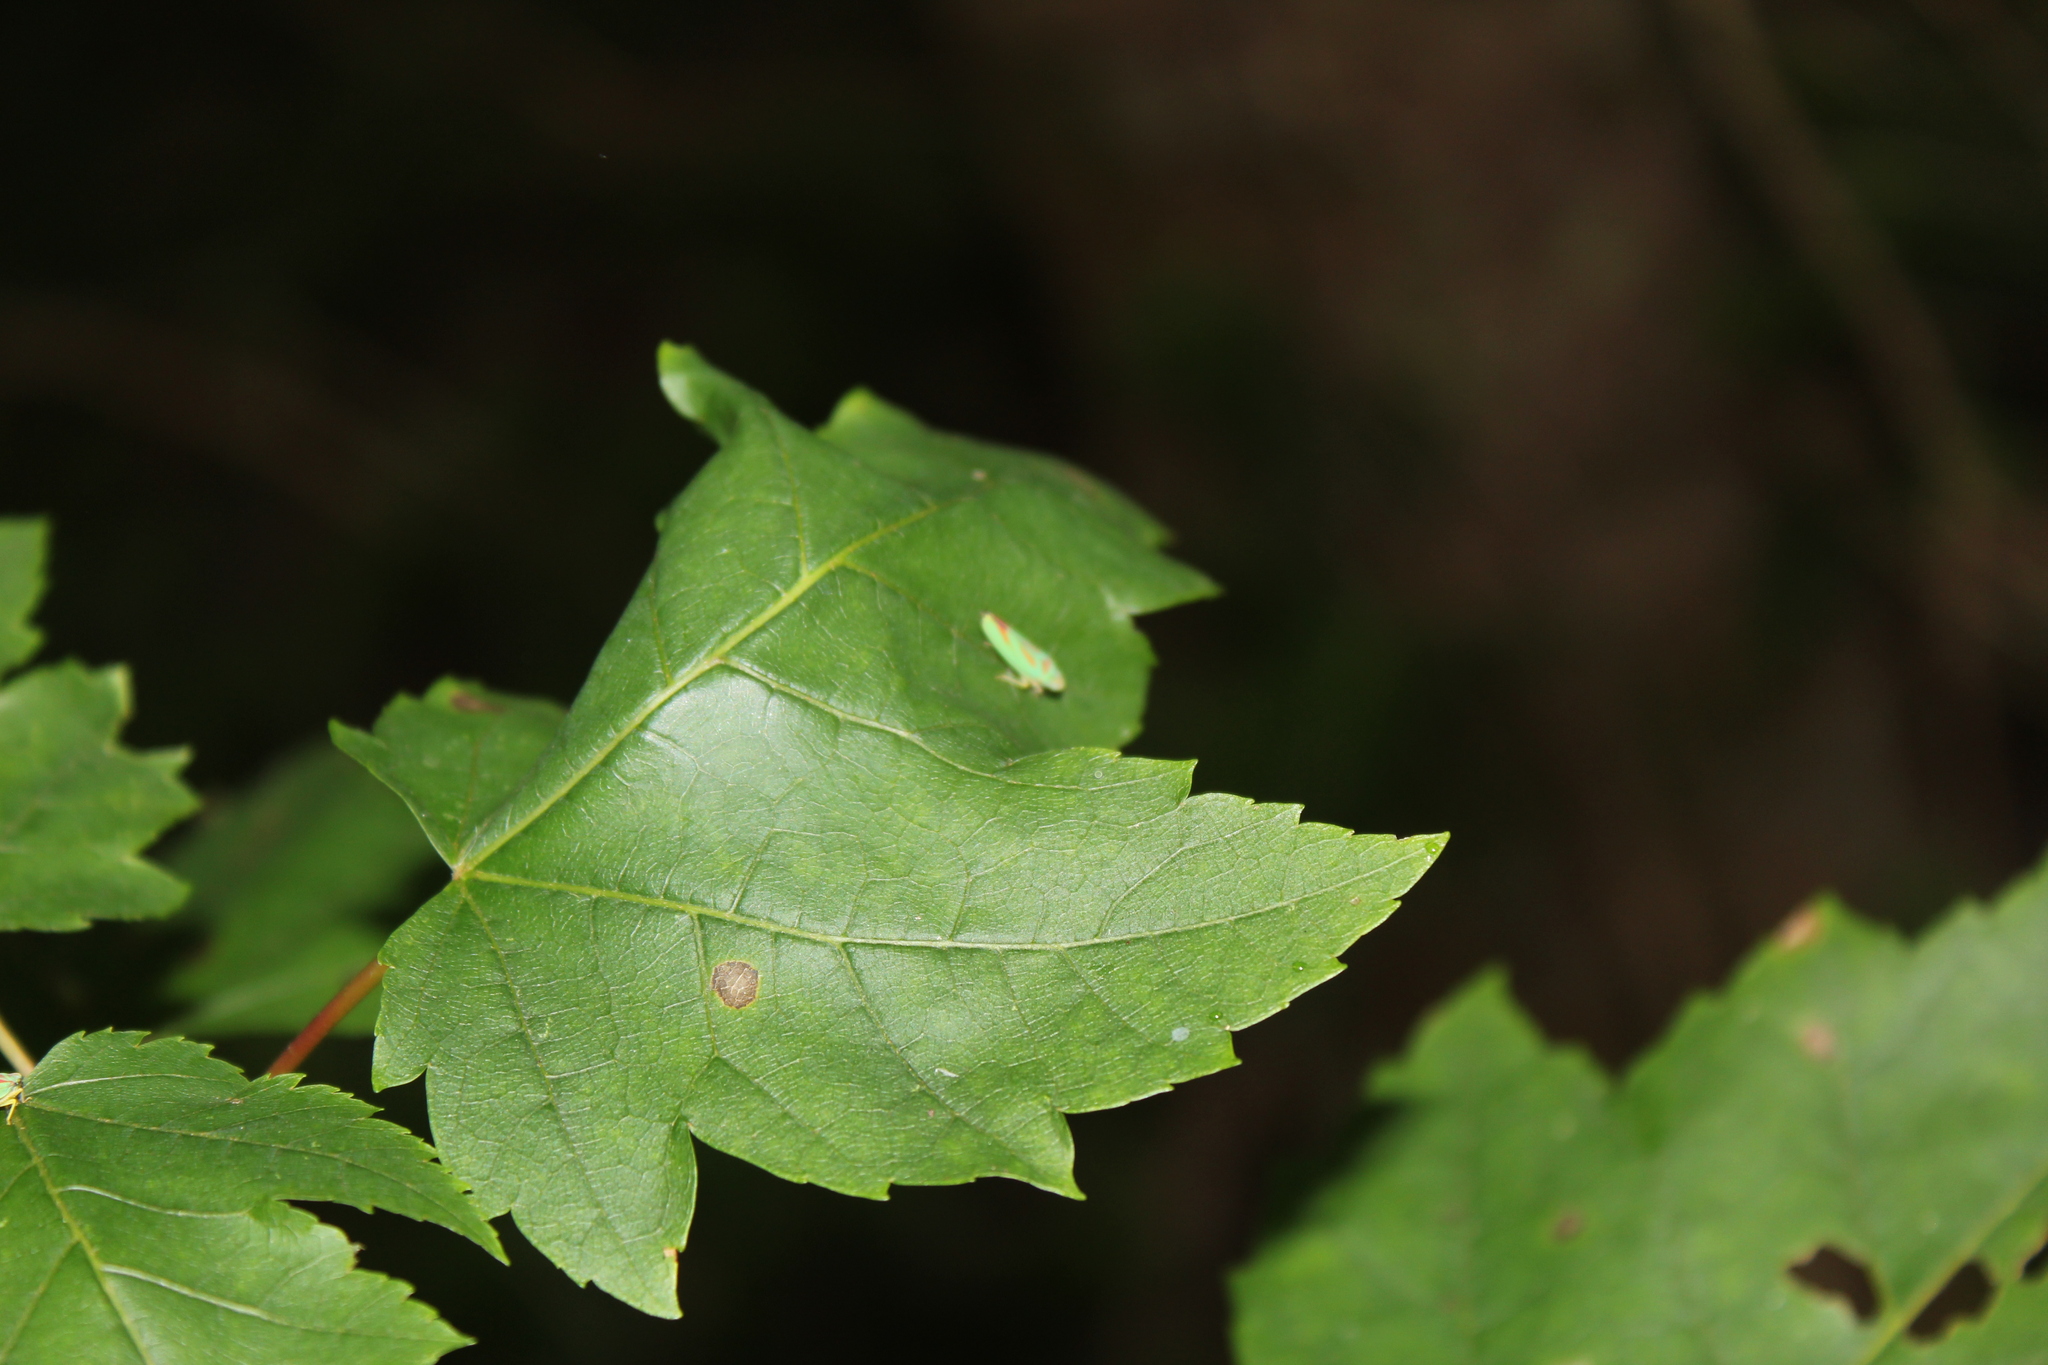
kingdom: Animalia
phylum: Arthropoda
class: Insecta
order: Hemiptera
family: Cicadellidae
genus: Graphocephala
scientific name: Graphocephala fennahi
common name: Rhododendron leafhopper
